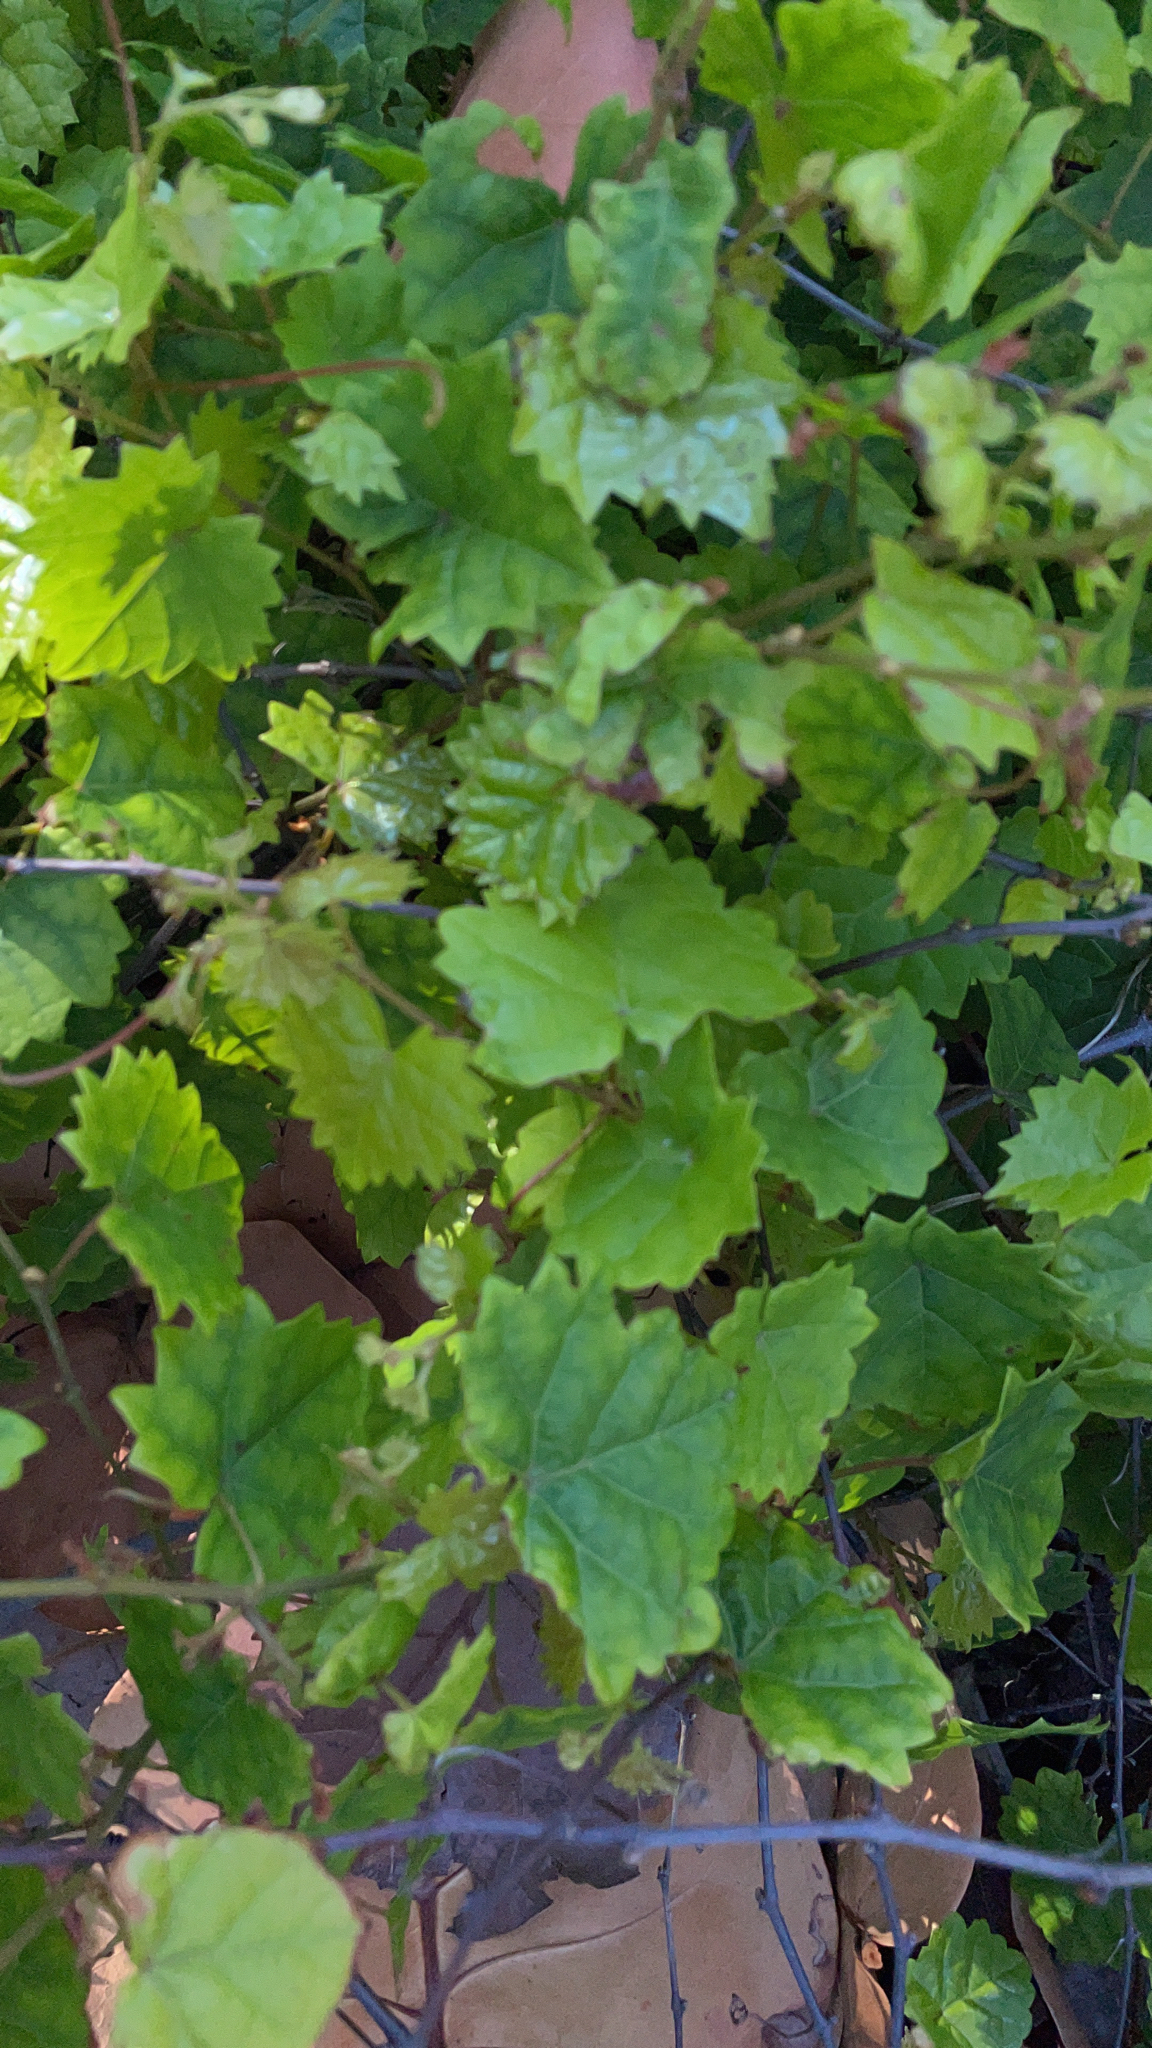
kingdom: Plantae
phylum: Tracheophyta
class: Magnoliopsida
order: Vitales
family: Vitaceae
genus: Vitis
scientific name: Vitis rotundifolia
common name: Muscadine grape
